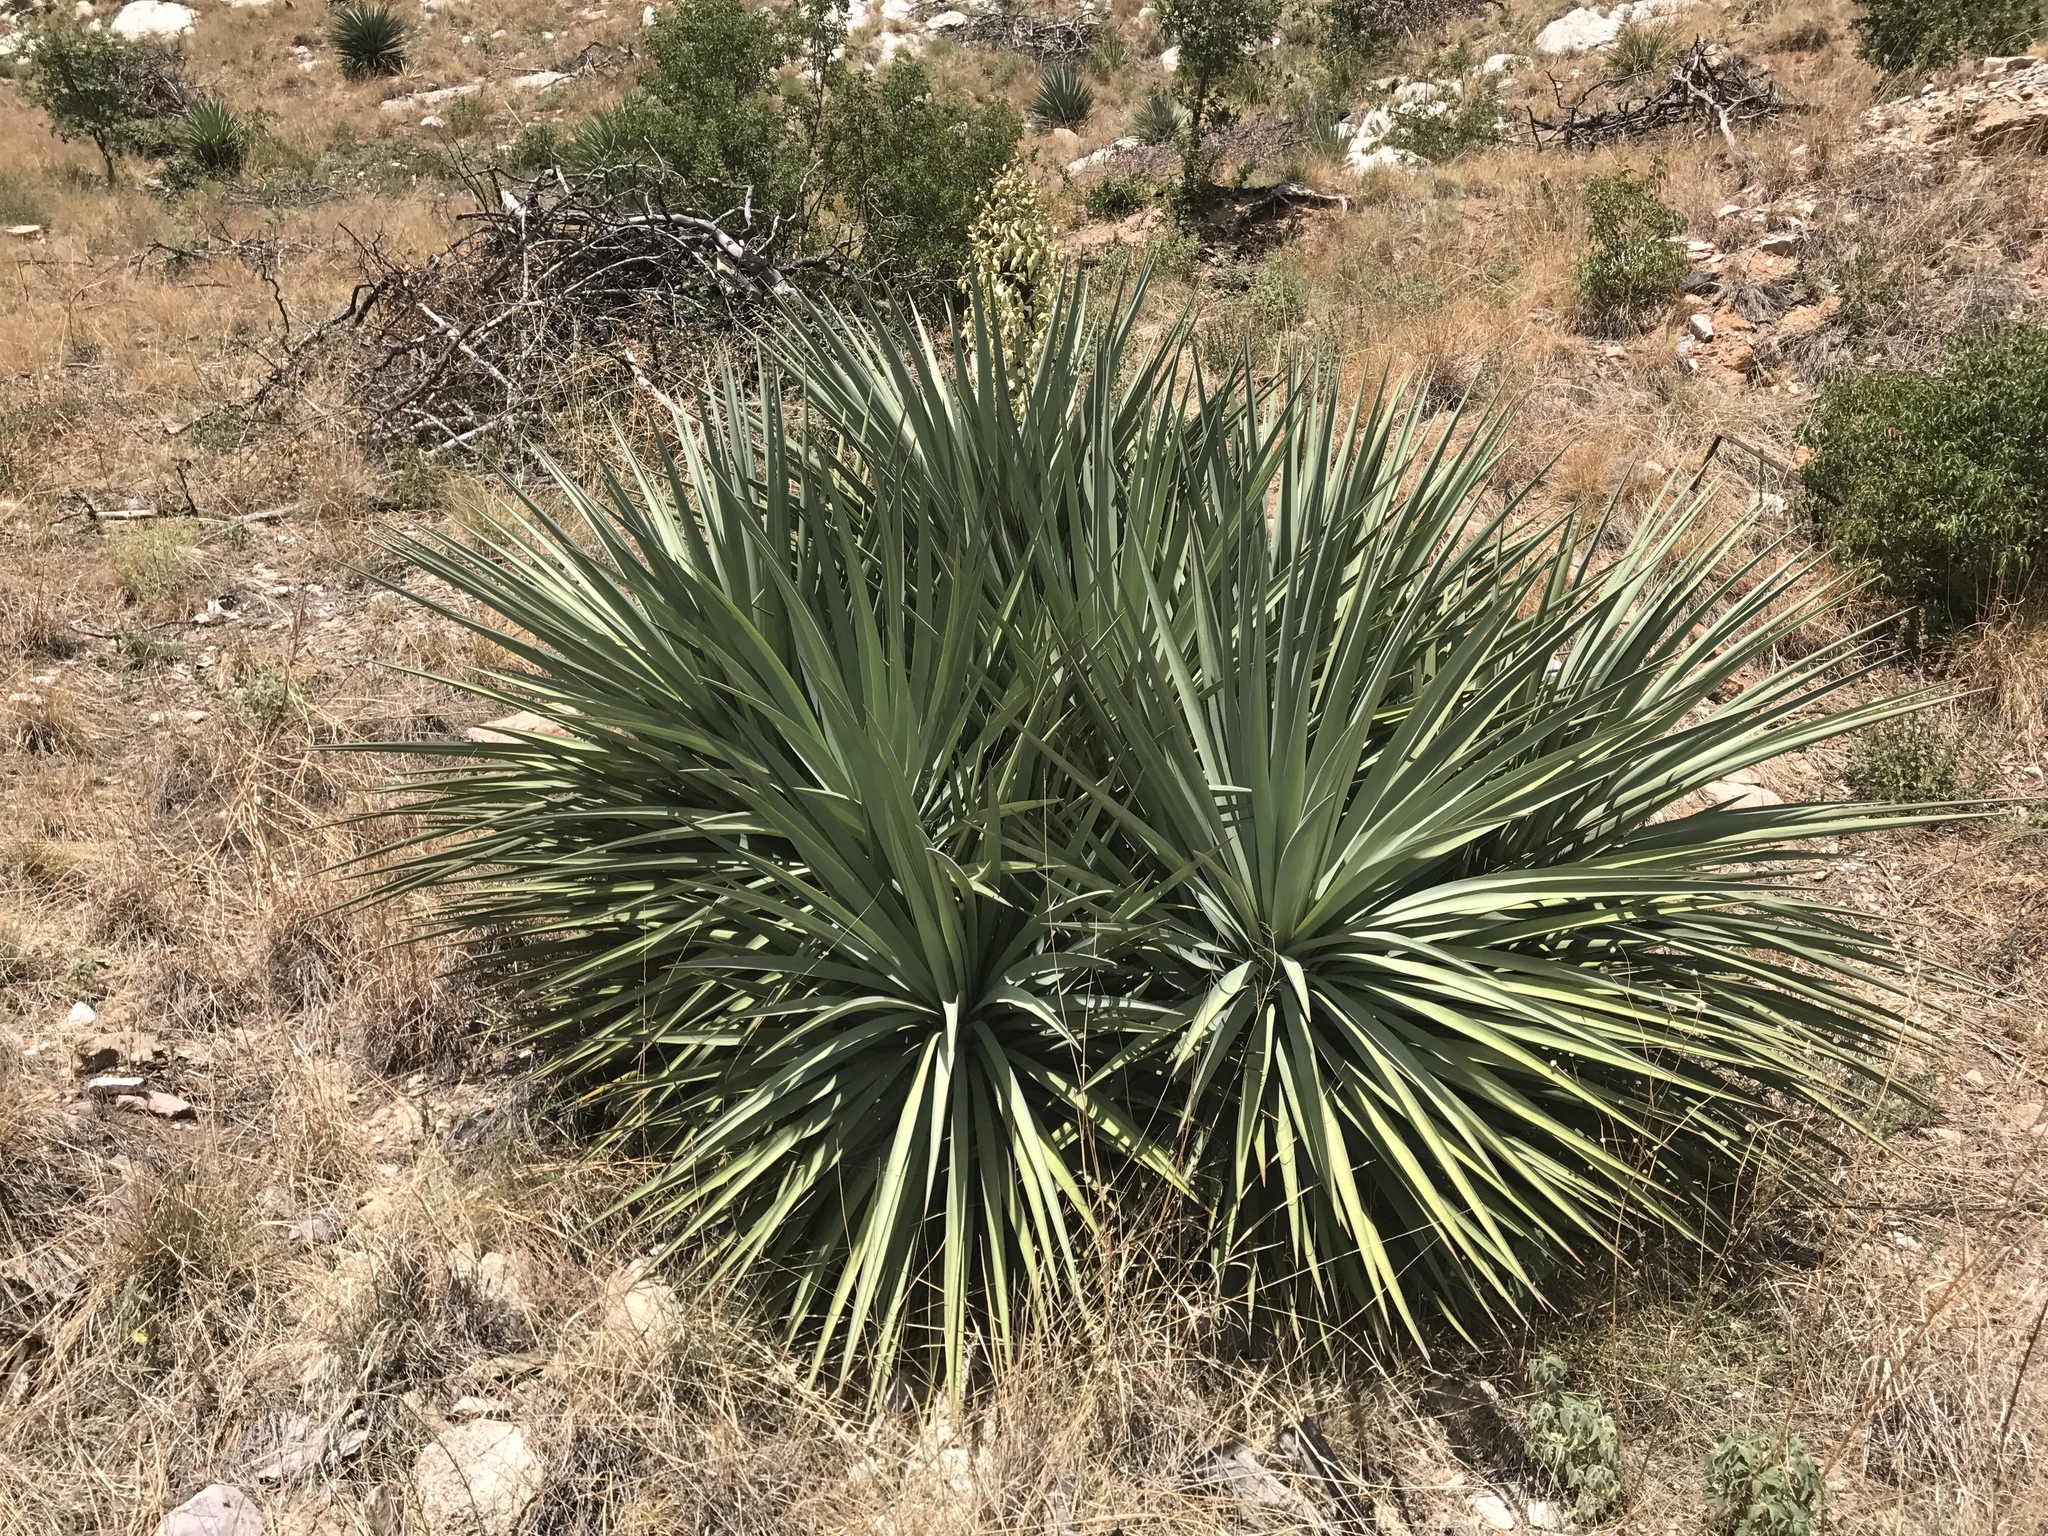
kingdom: Plantae
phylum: Tracheophyta
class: Liliopsida
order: Asparagales
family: Asparagaceae
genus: Yucca
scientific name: Yucca schottii
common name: Hoary yucca
